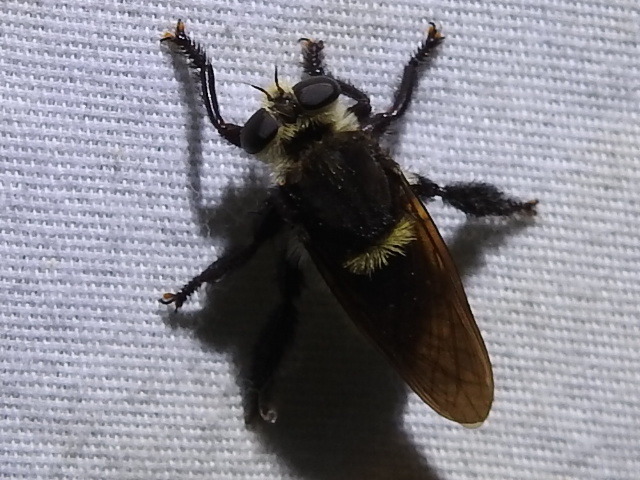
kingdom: Animalia
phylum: Arthropoda
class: Insecta
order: Diptera
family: Asilidae
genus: Mallophora
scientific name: Mallophora fautrix
